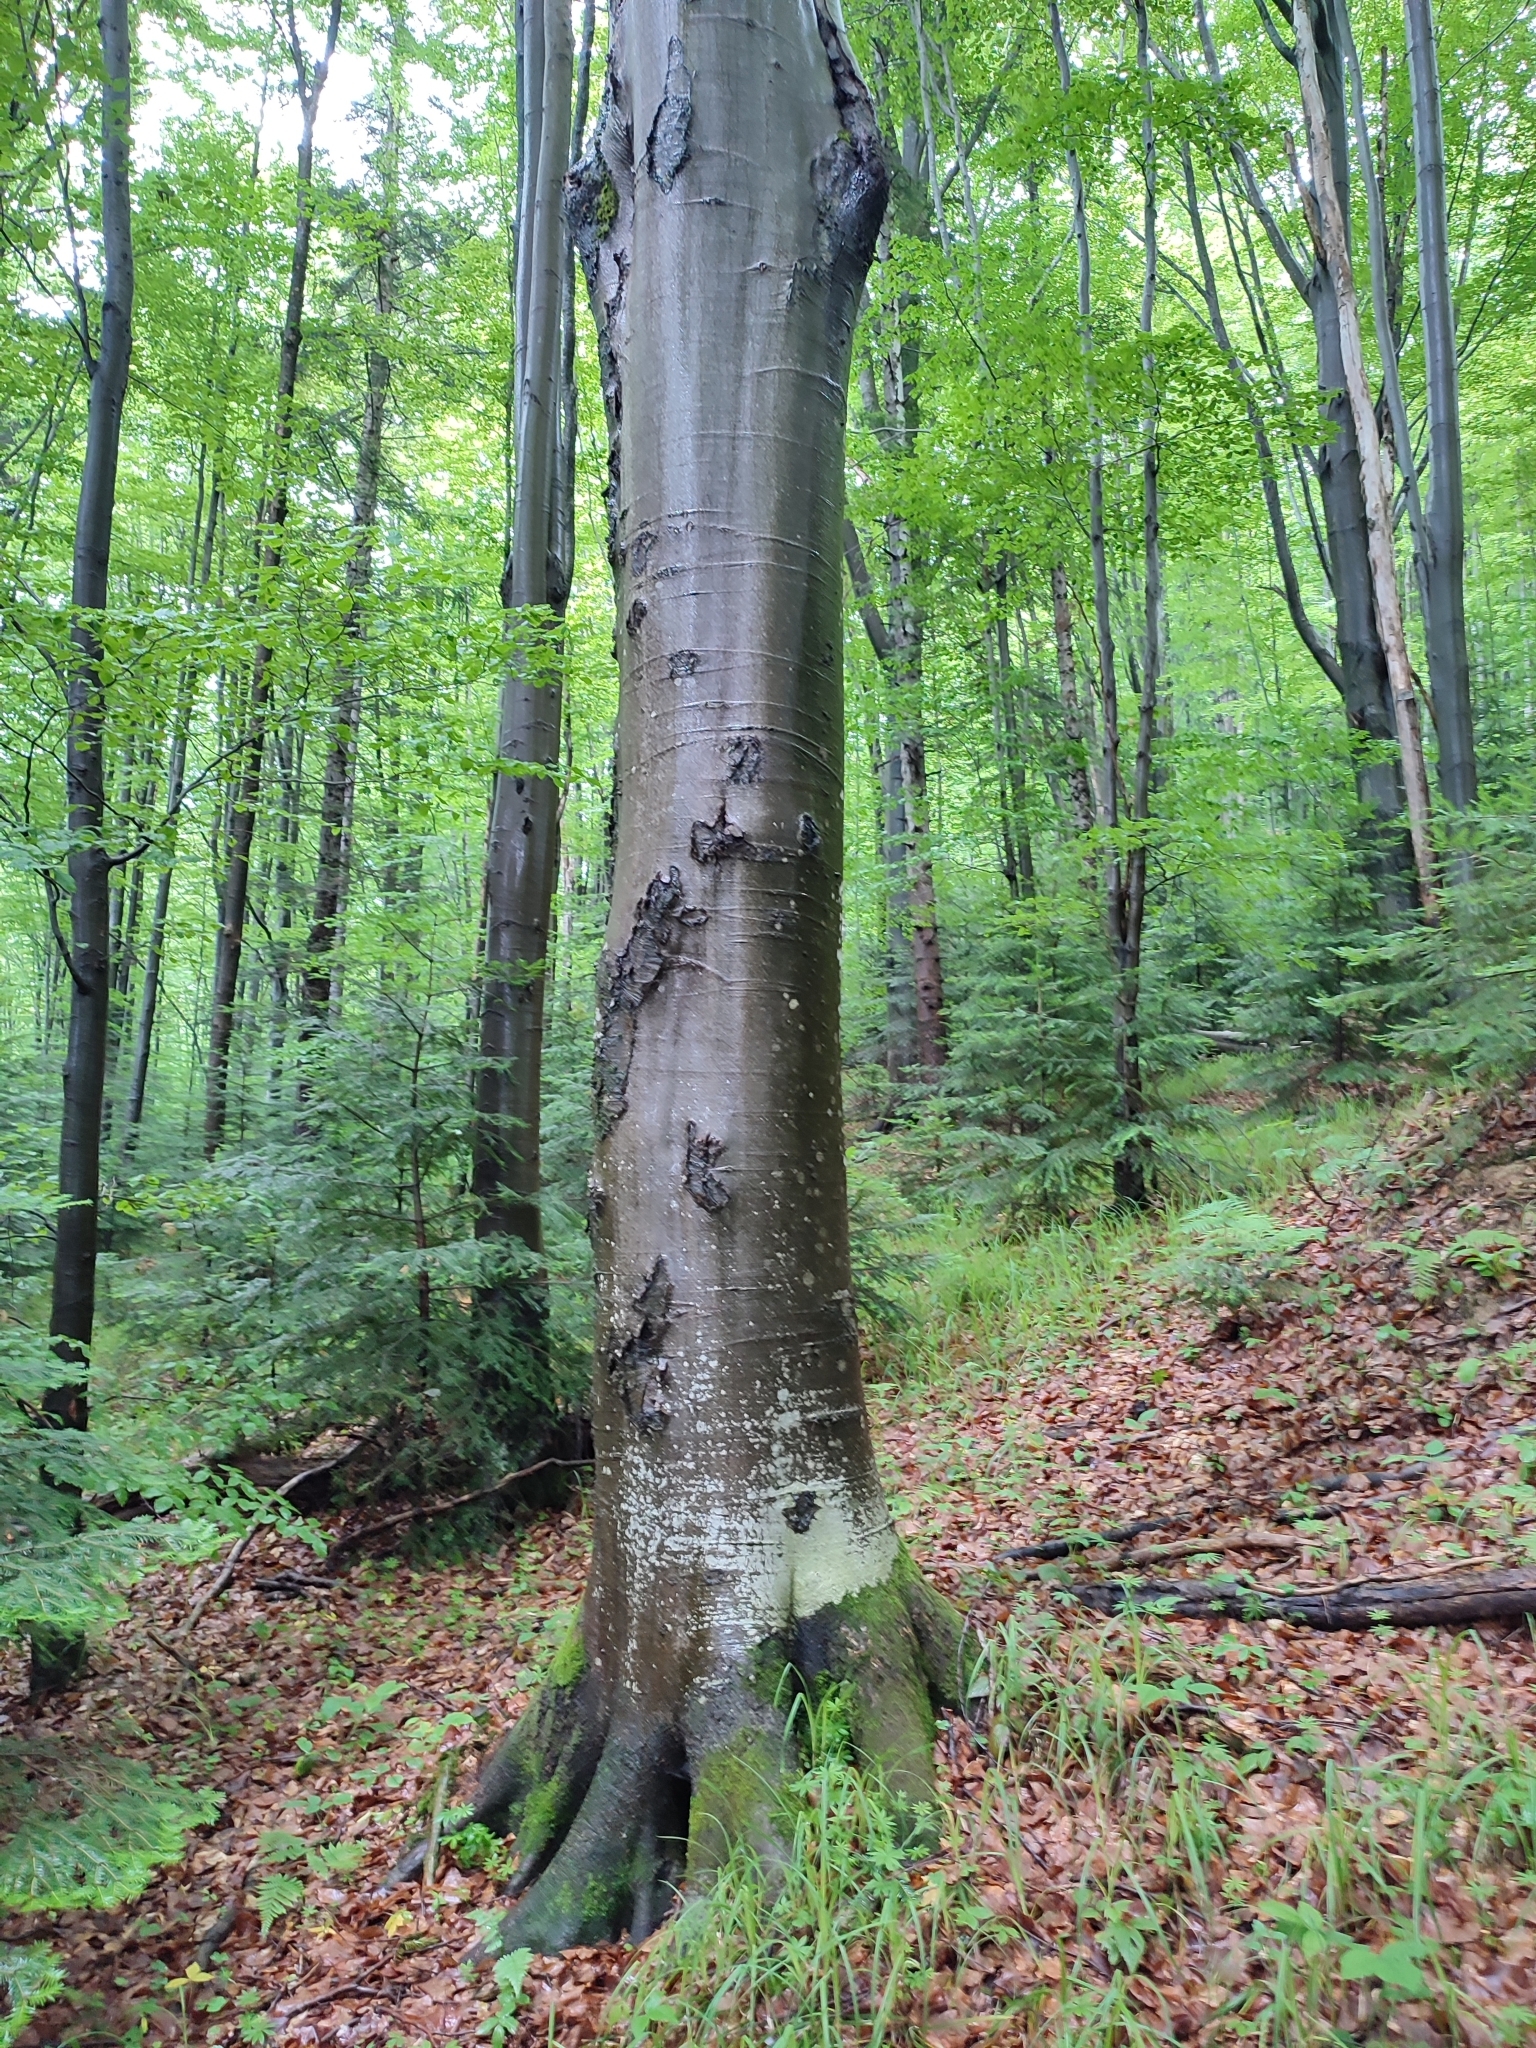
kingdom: Plantae
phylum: Tracheophyta
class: Magnoliopsida
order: Fagales
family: Fagaceae
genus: Fagus
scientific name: Fagus sylvatica
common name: Beech
